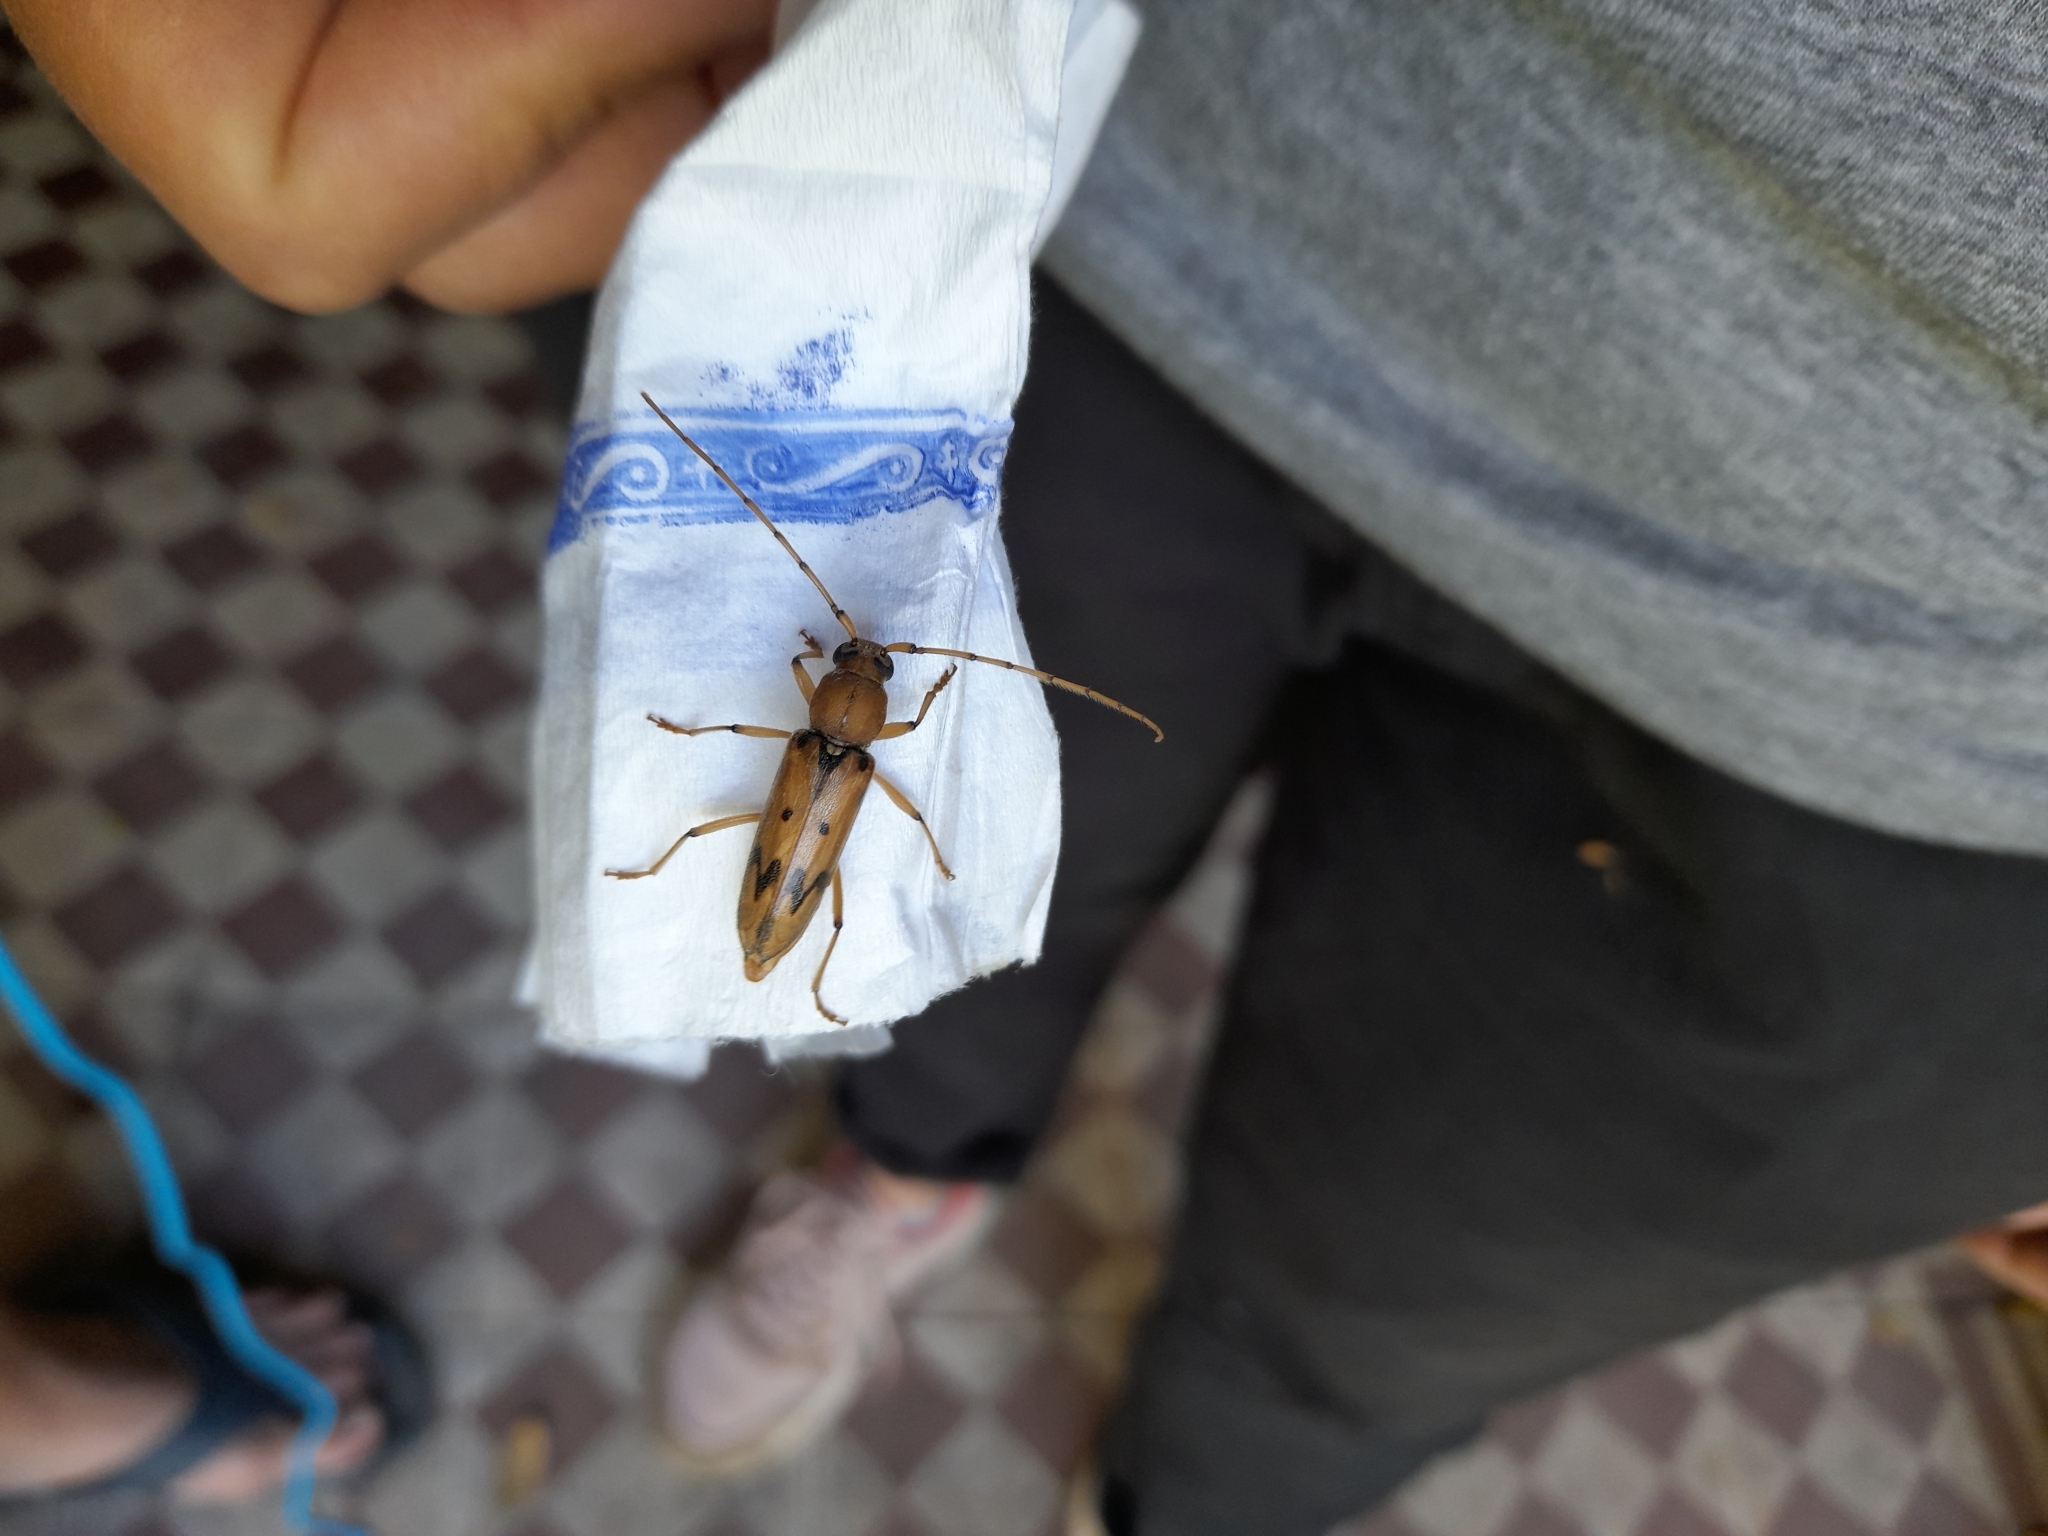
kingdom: Animalia
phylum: Arthropoda
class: Insecta
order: Coleoptera
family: Cerambycidae
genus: Achryson
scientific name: Achryson surinamum
